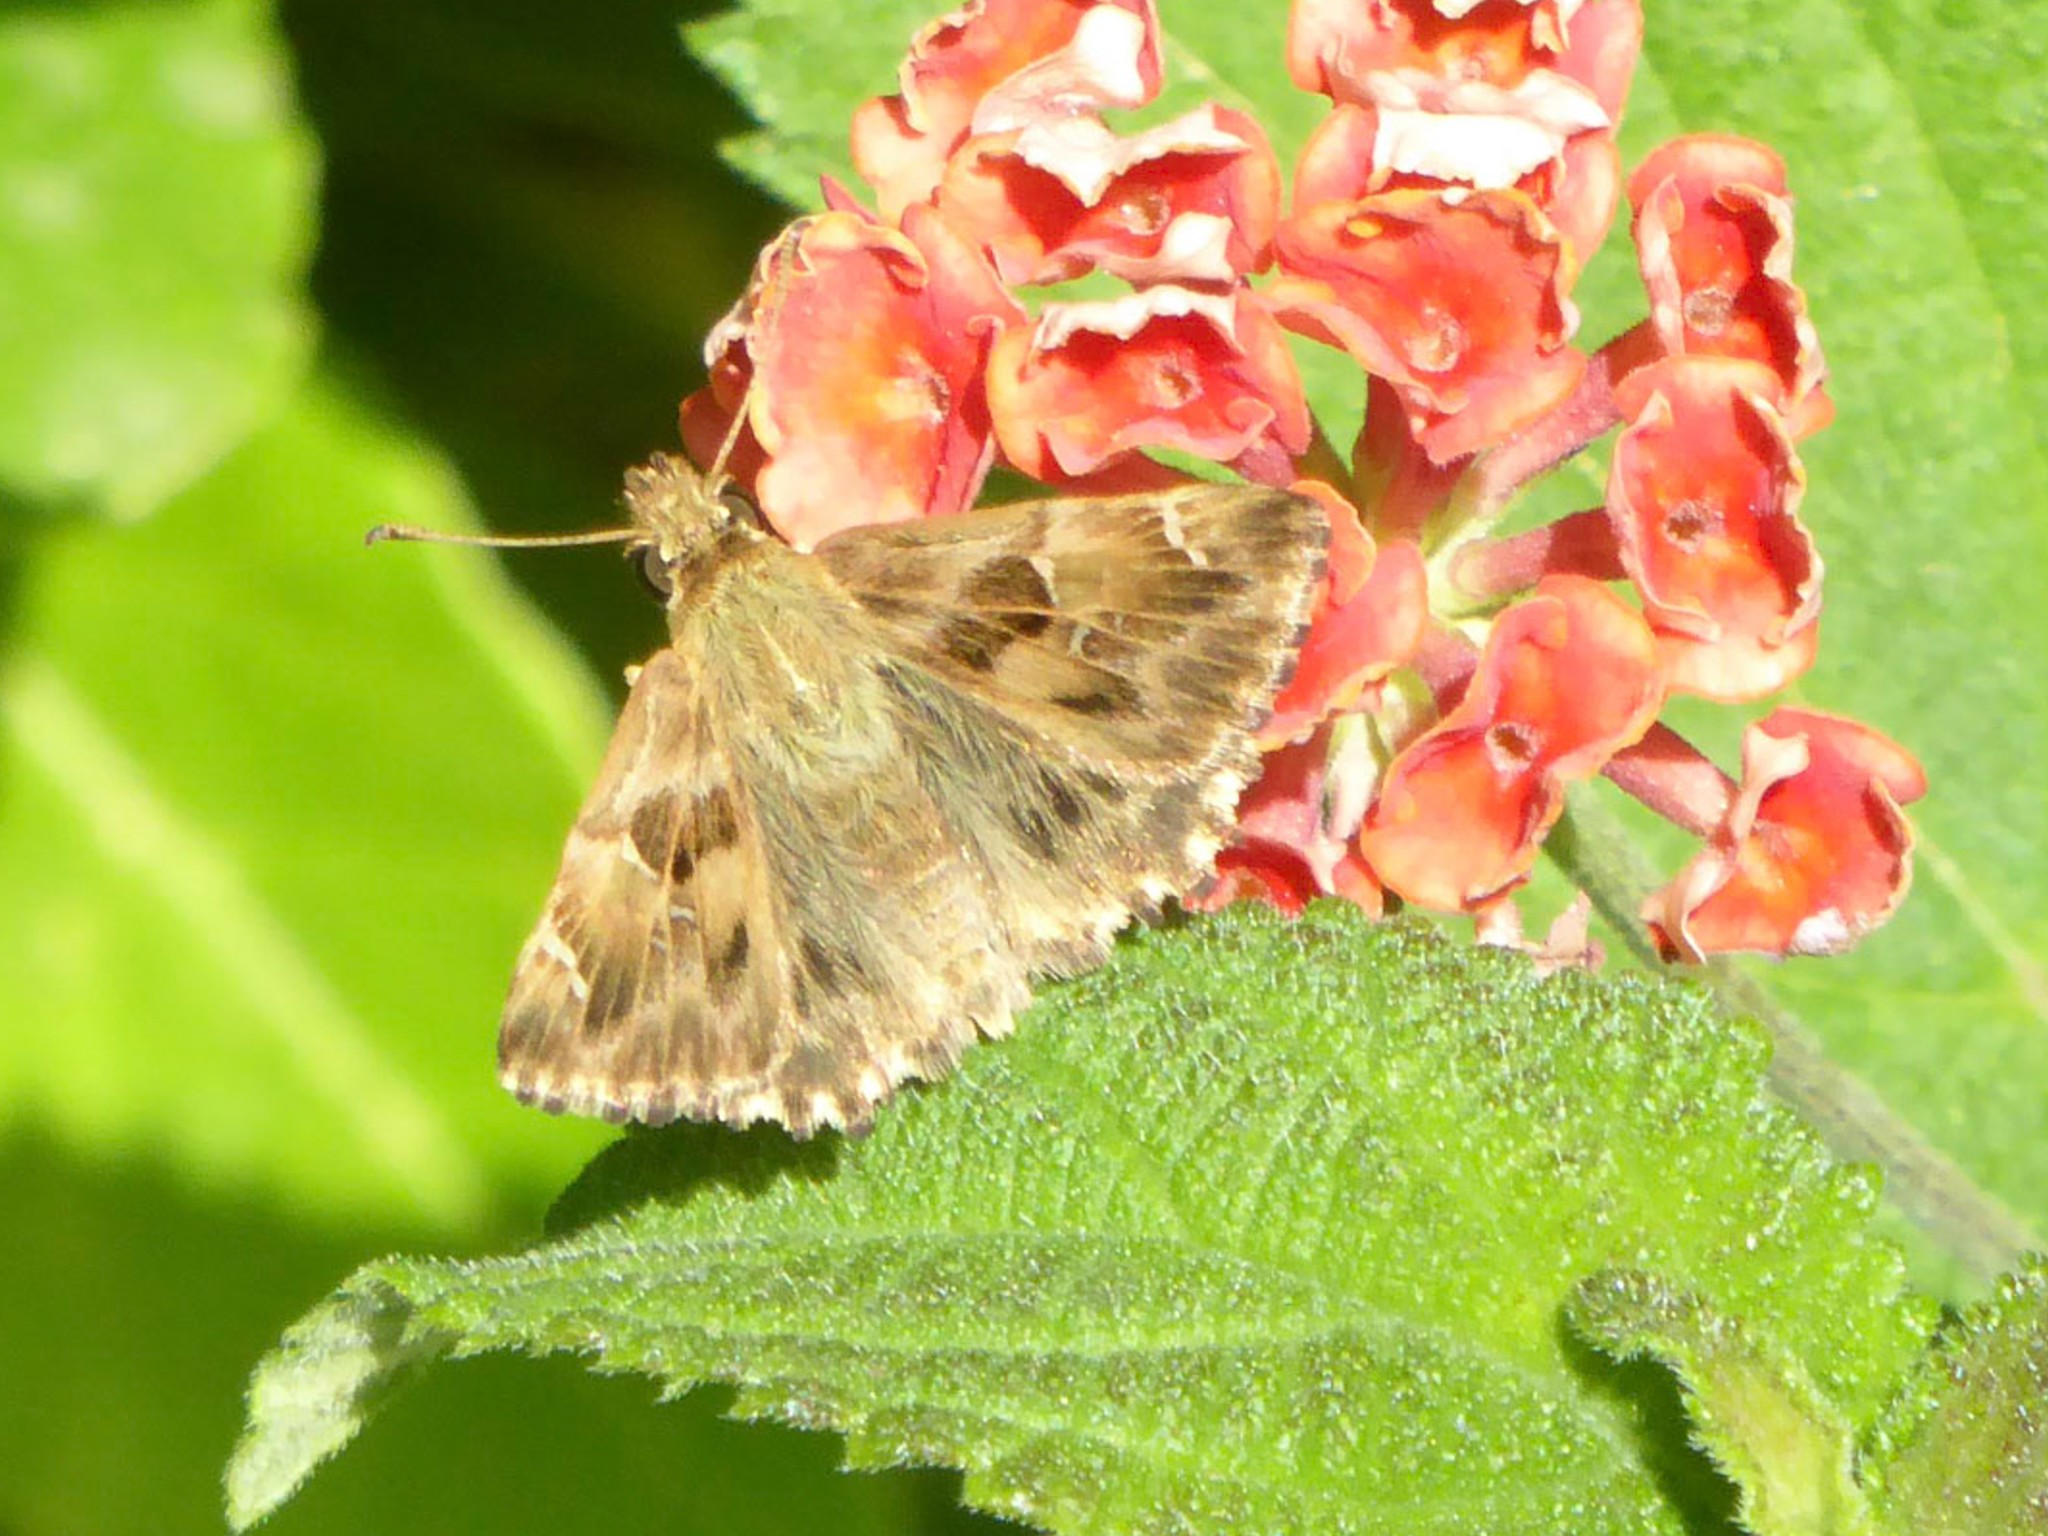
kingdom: Animalia
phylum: Arthropoda
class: Insecta
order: Lepidoptera
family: Hesperiidae
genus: Carcharodus
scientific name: Carcharodus alceae
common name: Mallow skipper
